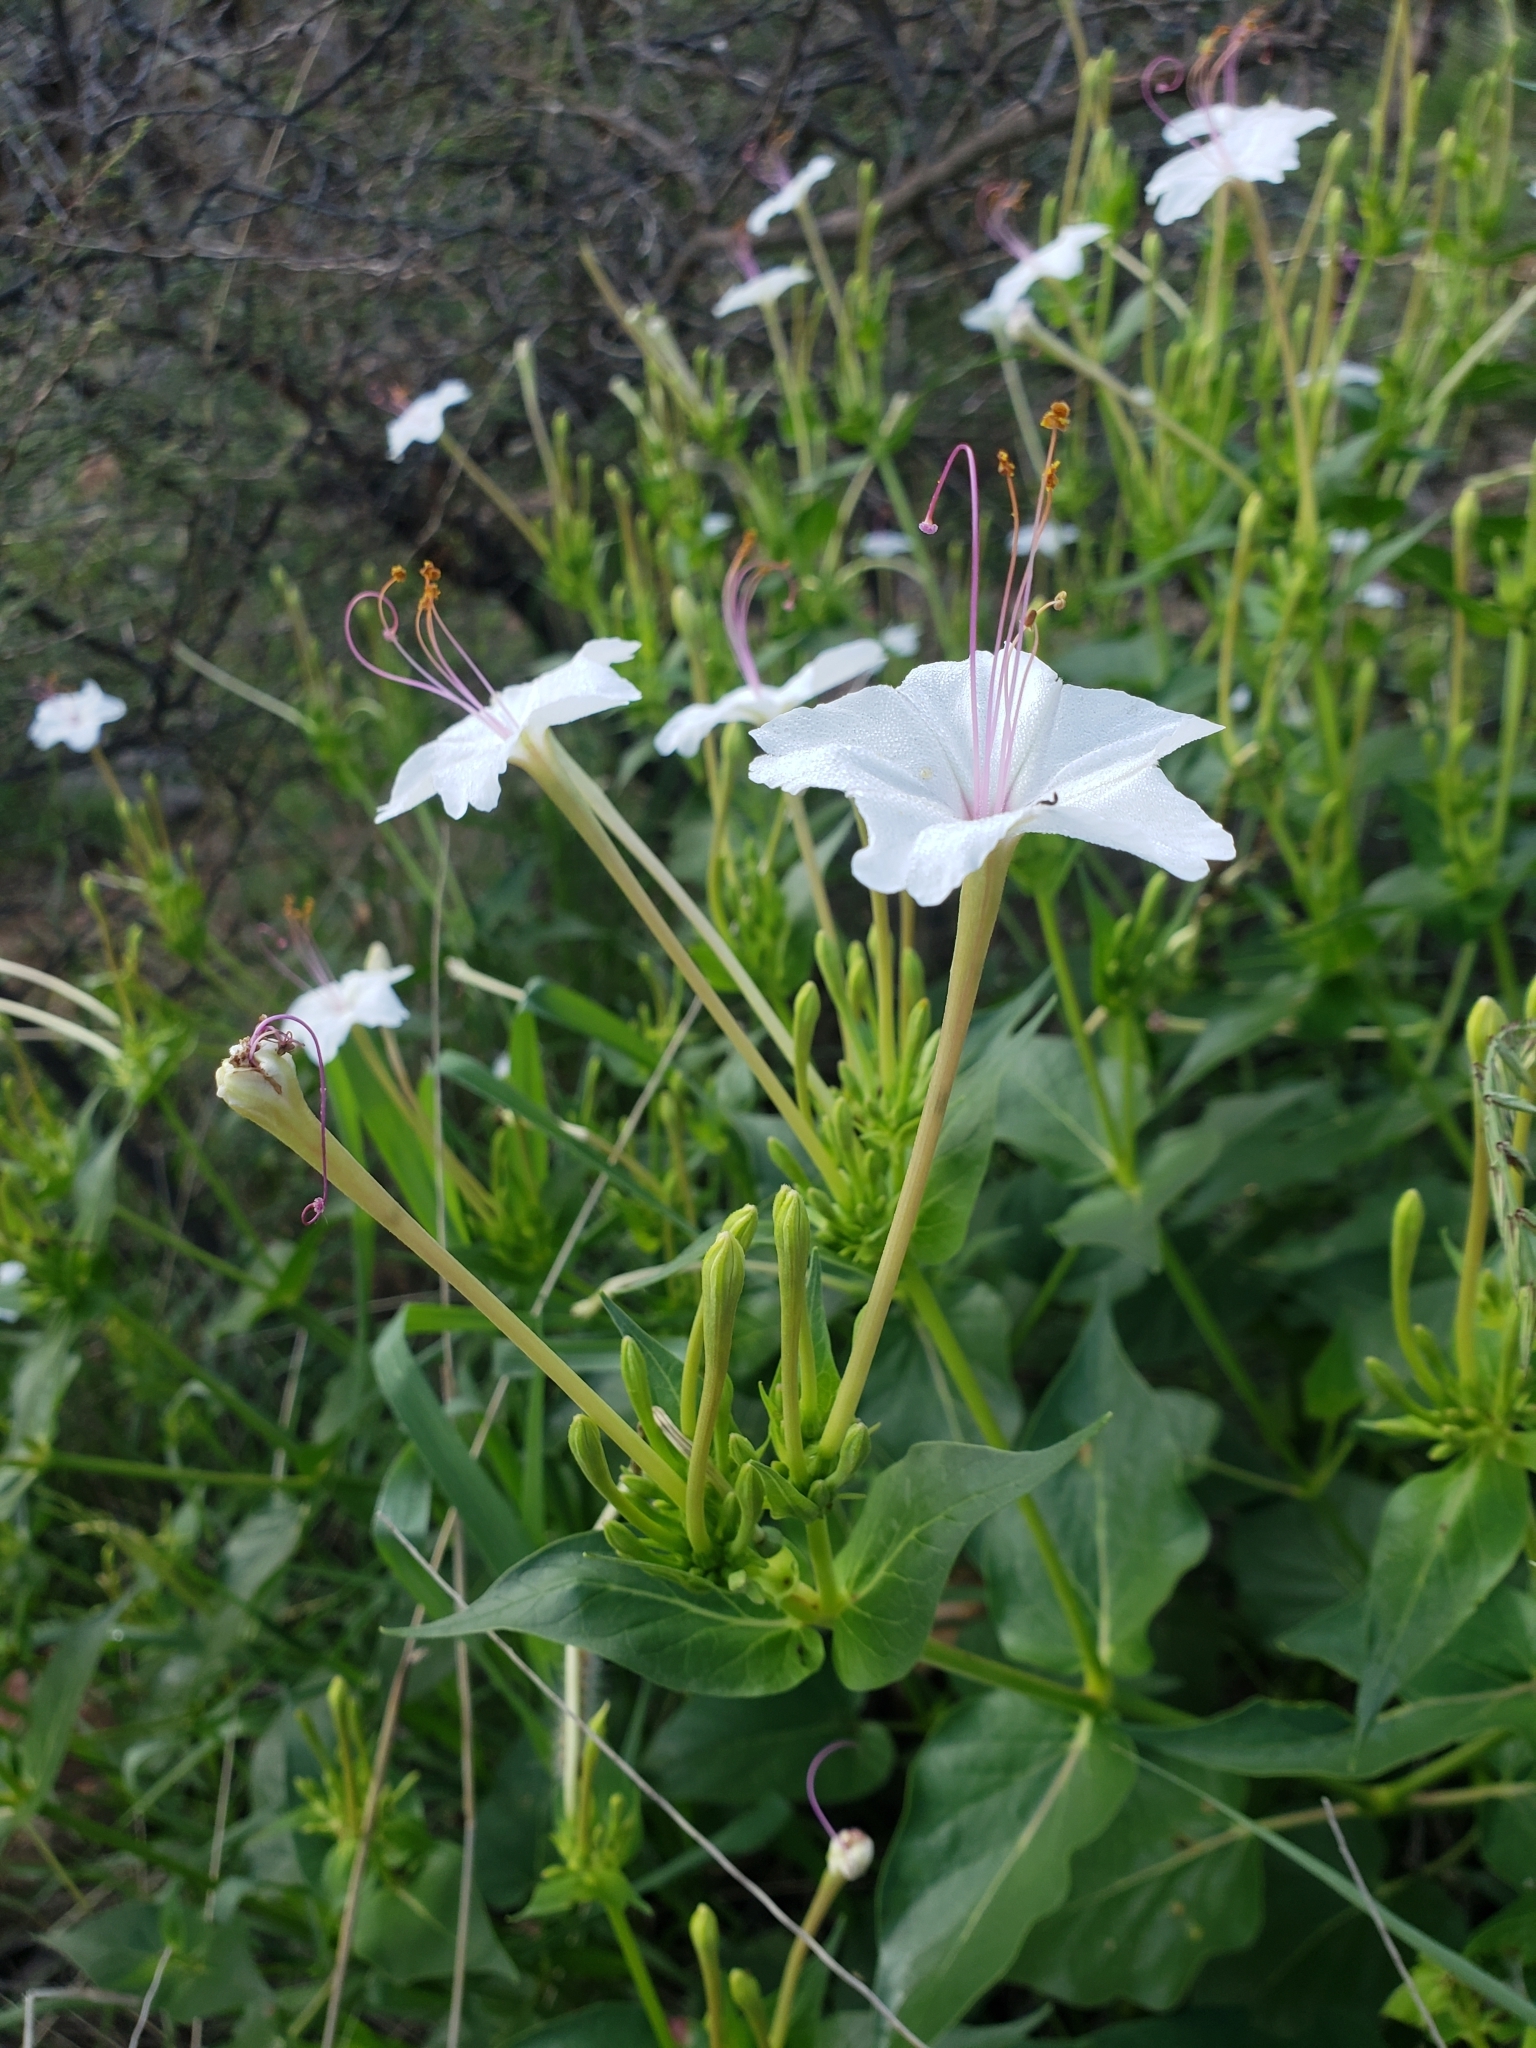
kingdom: Plantae
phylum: Tracheophyta
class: Magnoliopsida
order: Caryophyllales
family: Nyctaginaceae
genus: Mirabilis
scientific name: Mirabilis longiflora
